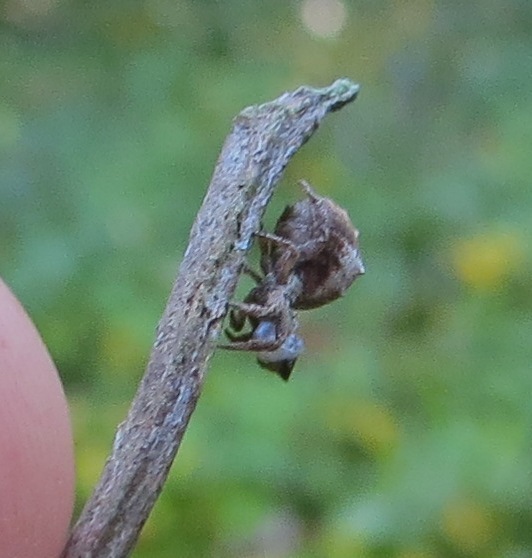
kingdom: Animalia
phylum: Arthropoda
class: Arachnida
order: Araneae
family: Uloboridae
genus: Hyptiotes
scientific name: Hyptiotes cavatus
